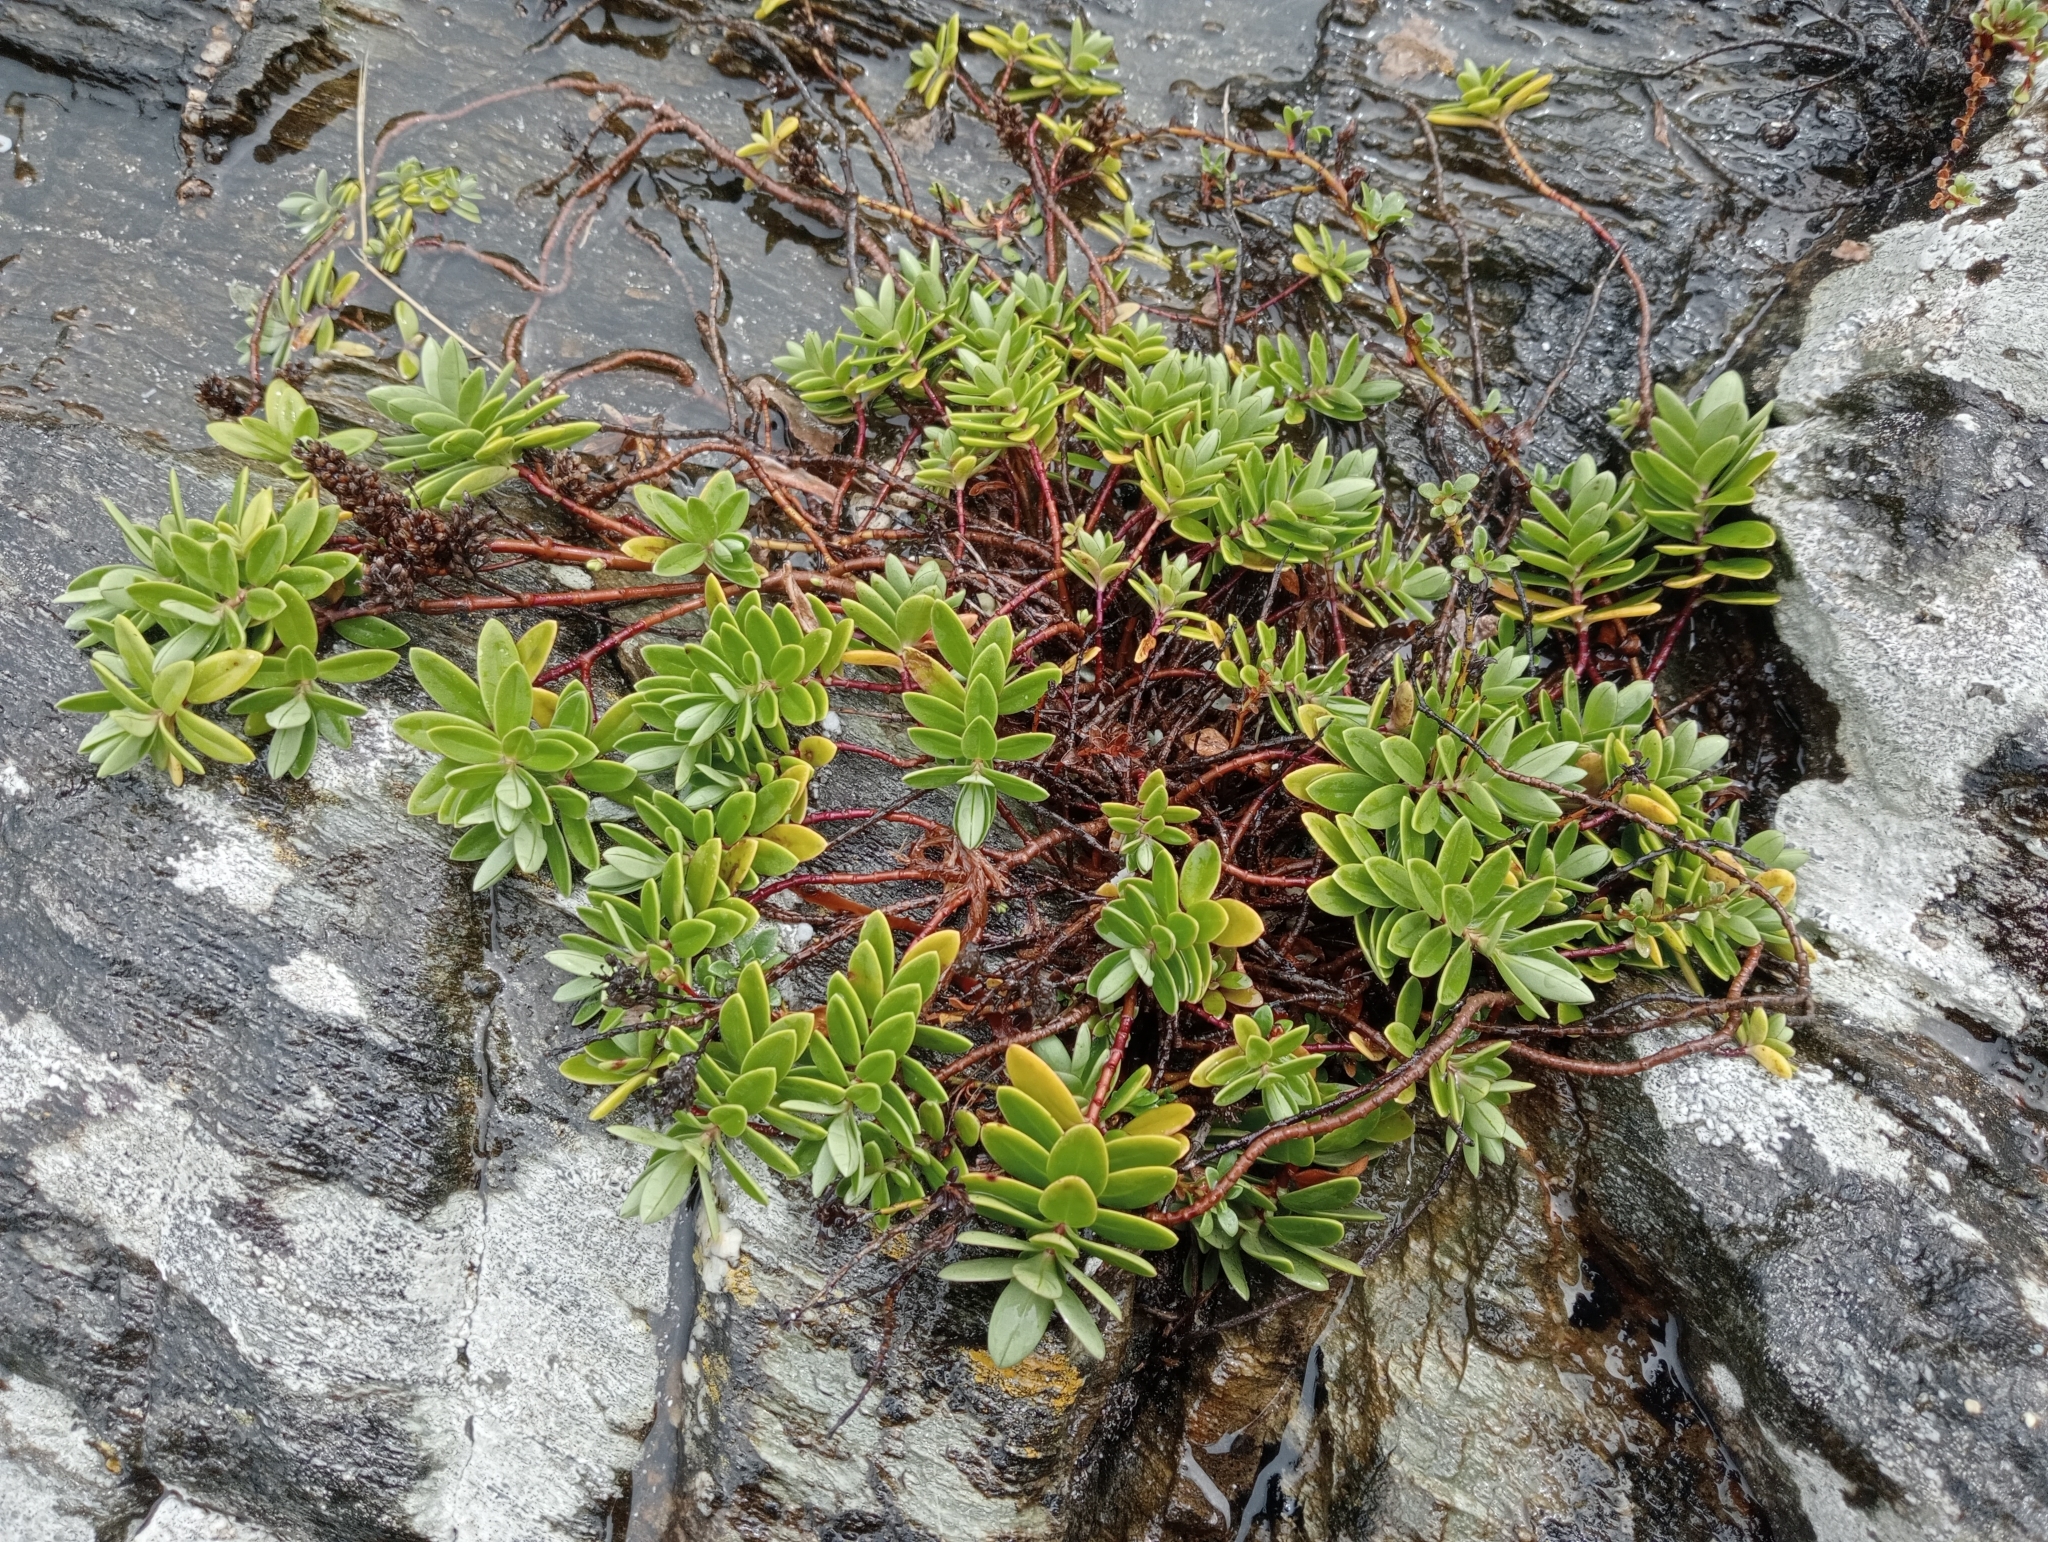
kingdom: Plantae
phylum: Tracheophyta
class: Magnoliopsida
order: Lamiales
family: Plantaginaceae
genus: Veronica
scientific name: Veronica chathamica
